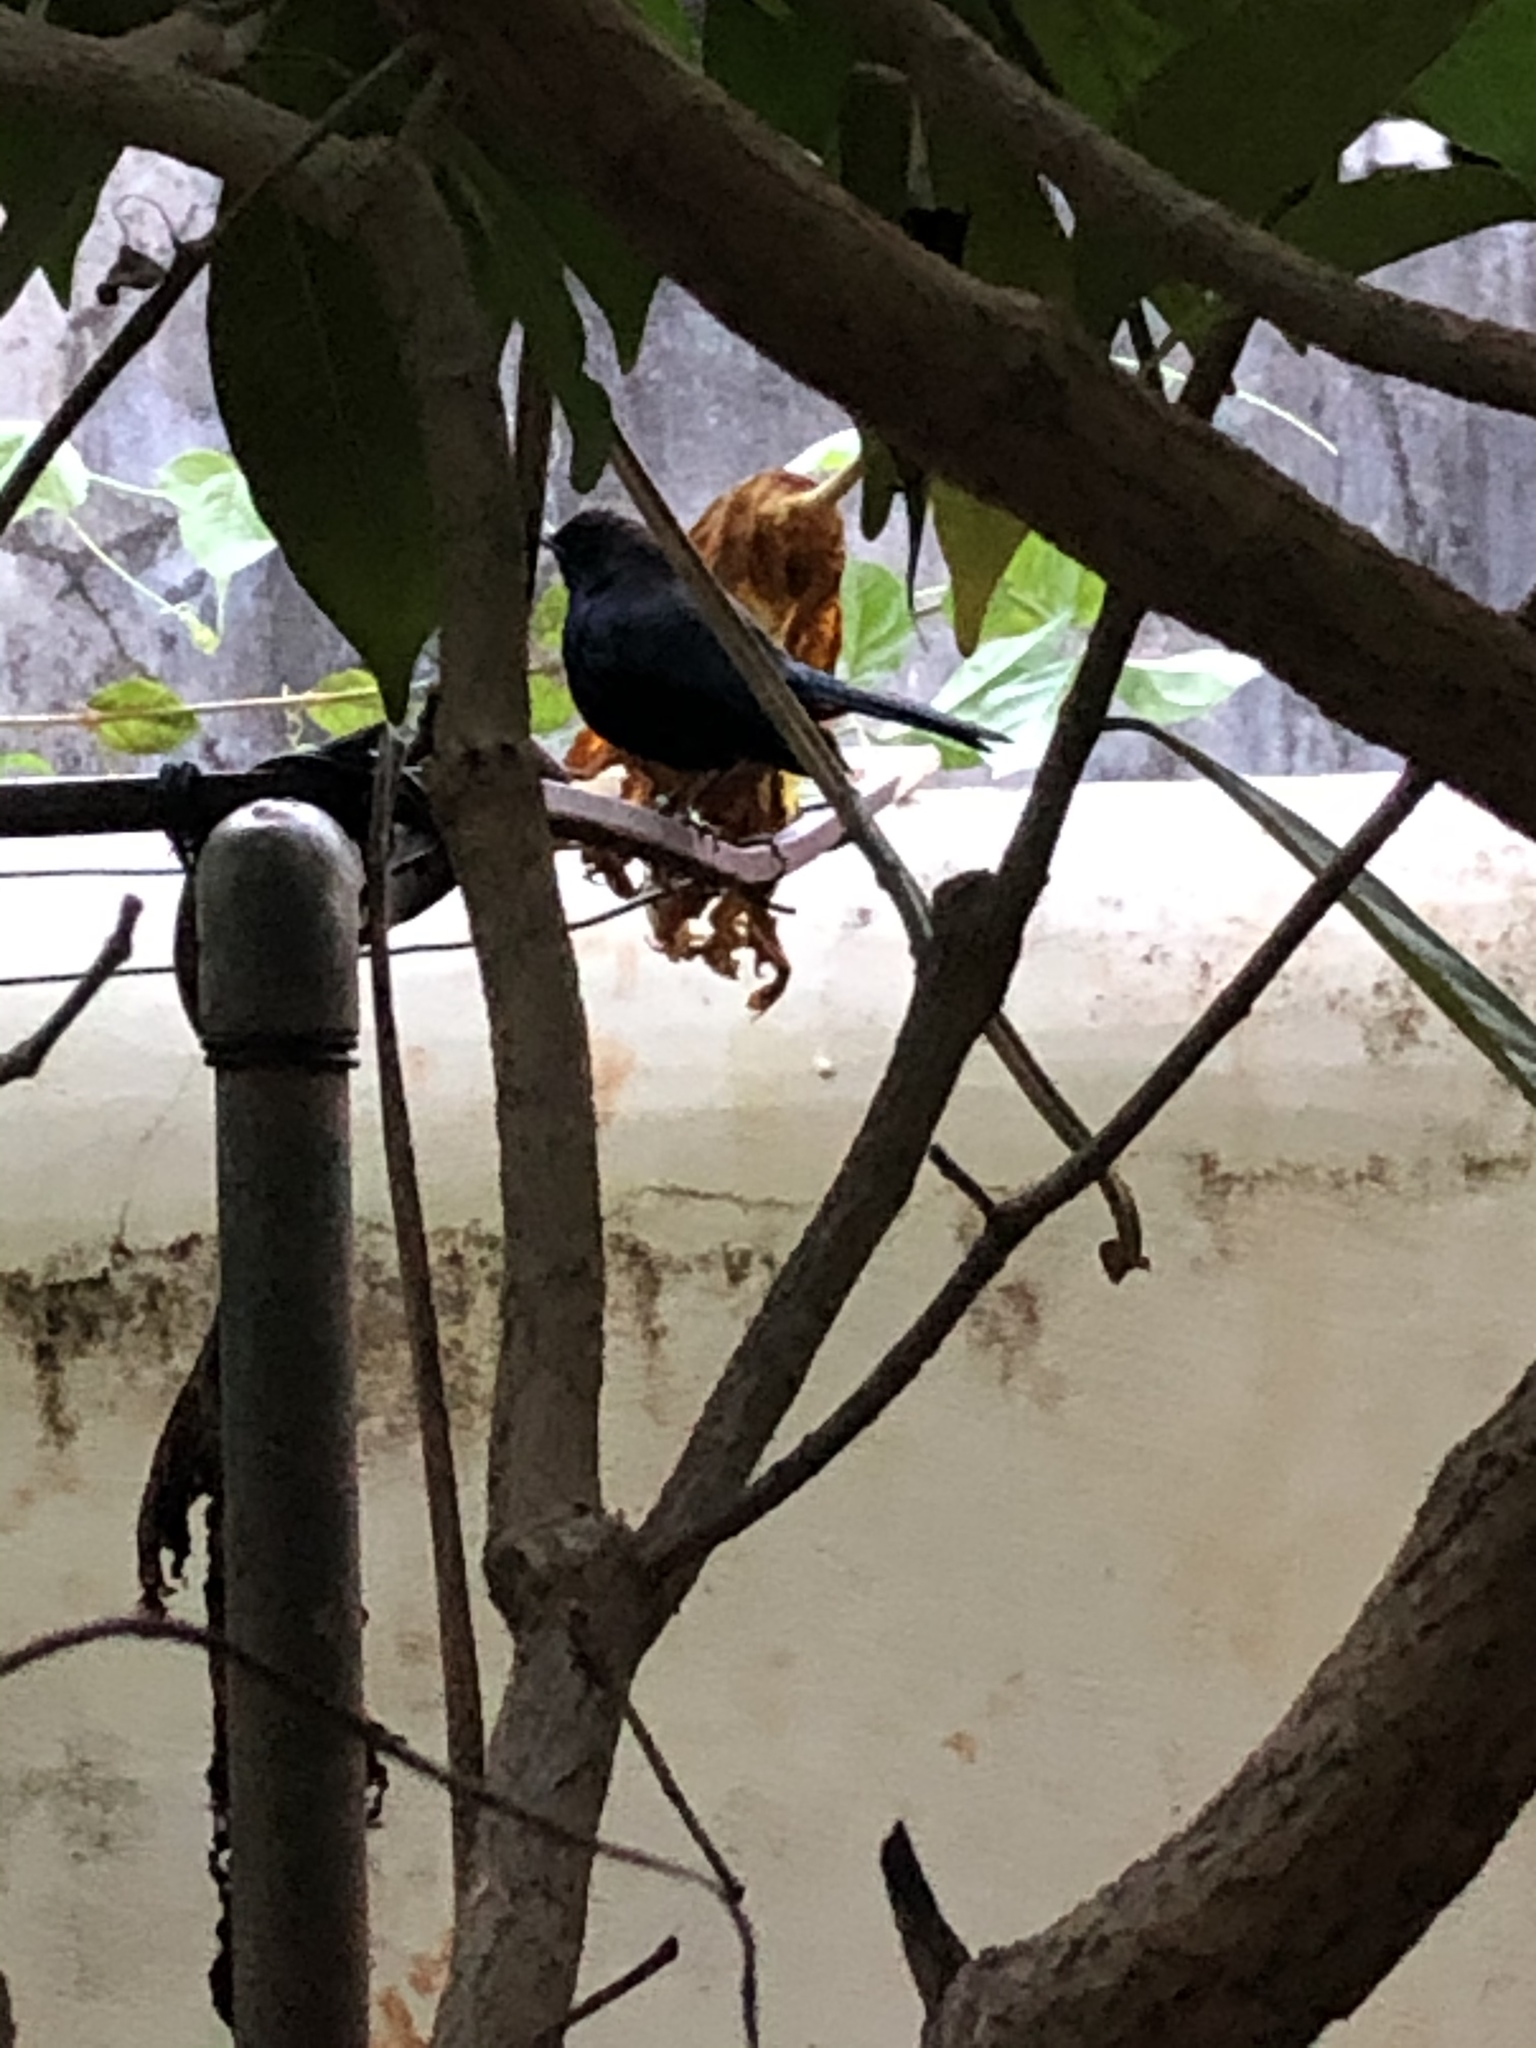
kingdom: Animalia
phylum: Chordata
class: Aves
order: Passeriformes
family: Muscicapidae
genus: Saxicoloides
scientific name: Saxicoloides fulicatus
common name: Indian robin
